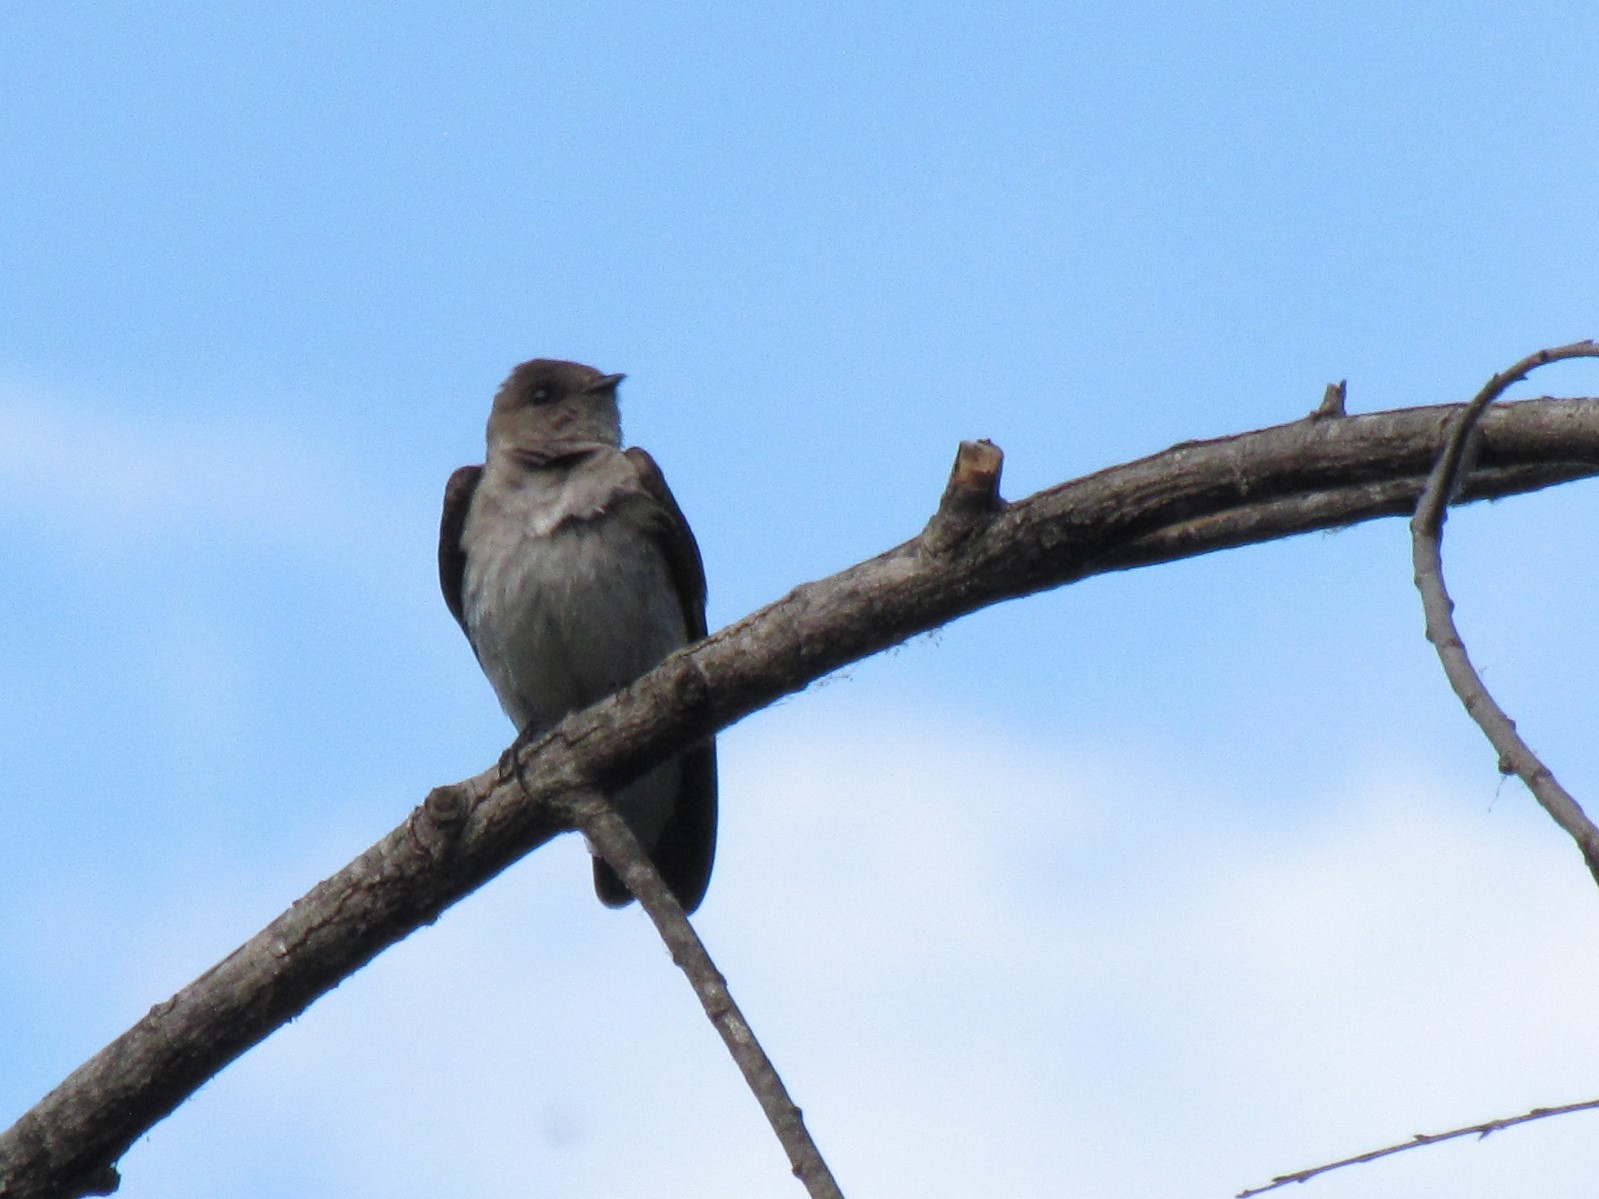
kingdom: Animalia
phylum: Chordata
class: Aves
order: Passeriformes
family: Hirundinidae
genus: Stelgidopteryx
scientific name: Stelgidopteryx serripennis
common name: Northern rough-winged swallow
